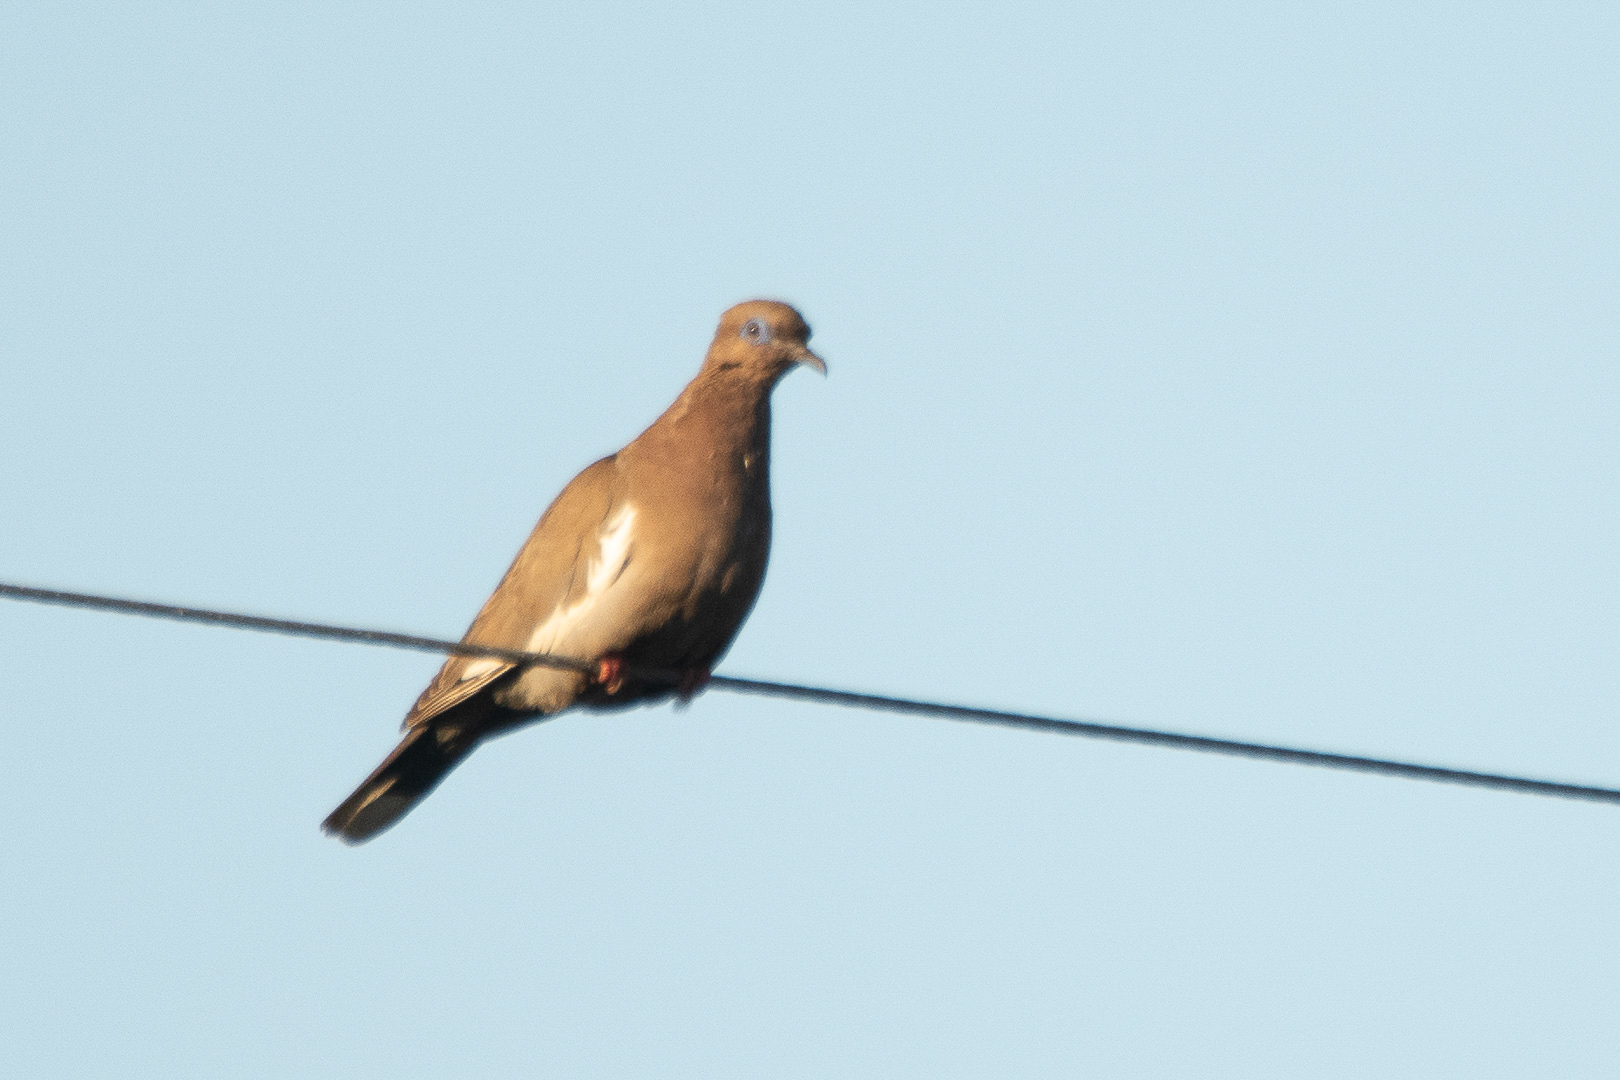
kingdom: Animalia
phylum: Chordata
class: Aves
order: Columbiformes
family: Columbidae
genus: Zenaida
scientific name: Zenaida meloda
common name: West peruvian dove
